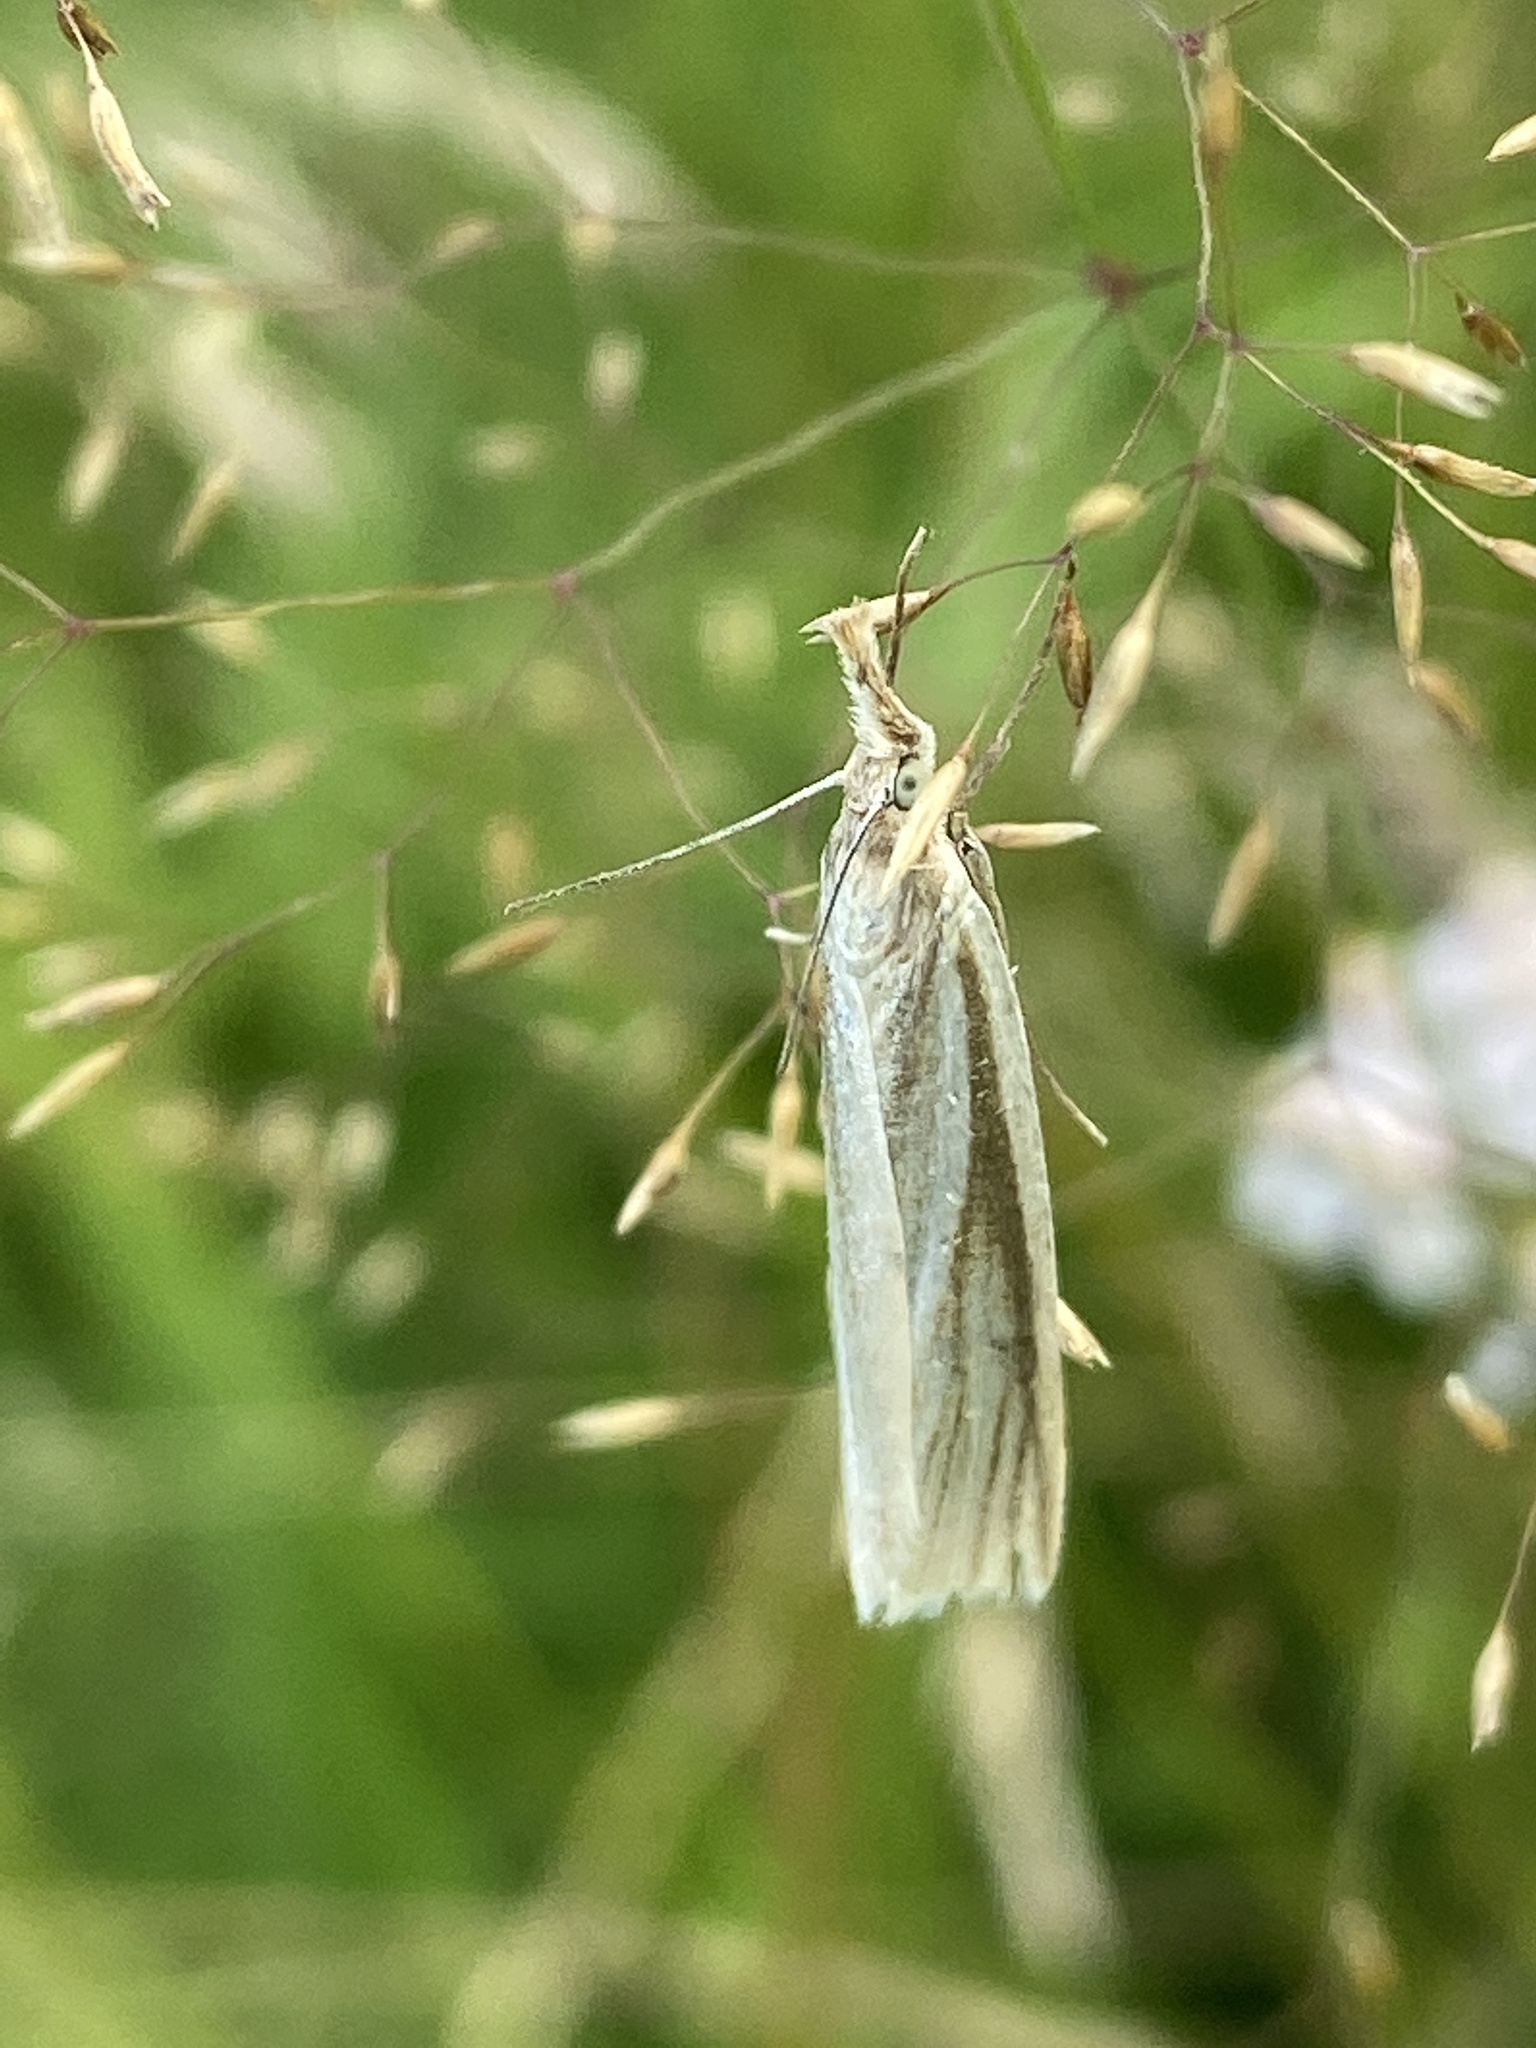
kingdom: Animalia
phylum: Arthropoda
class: Insecta
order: Lepidoptera
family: Crambidae
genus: Crambus
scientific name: Crambus perlellus
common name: Yellow satin veneer
